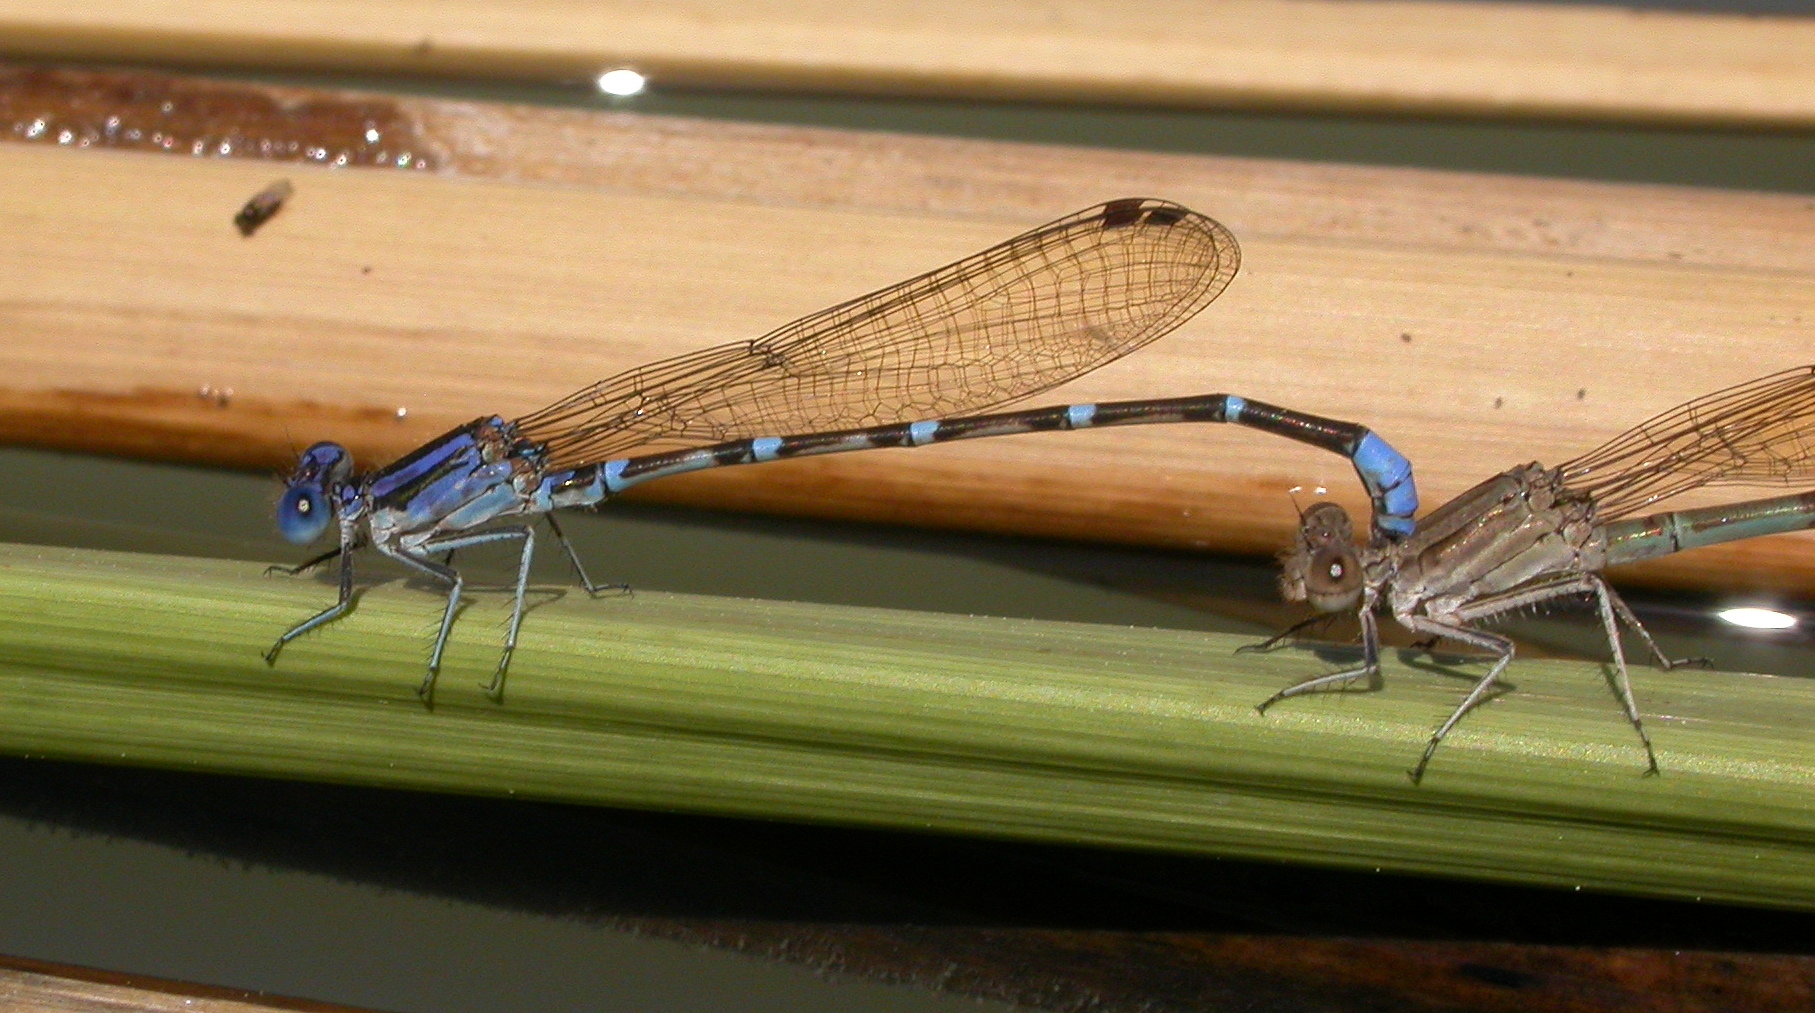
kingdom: Animalia
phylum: Arthropoda
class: Insecta
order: Odonata
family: Coenagrionidae
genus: Argia
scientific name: Argia sedula
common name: Blue-ringed dancer
